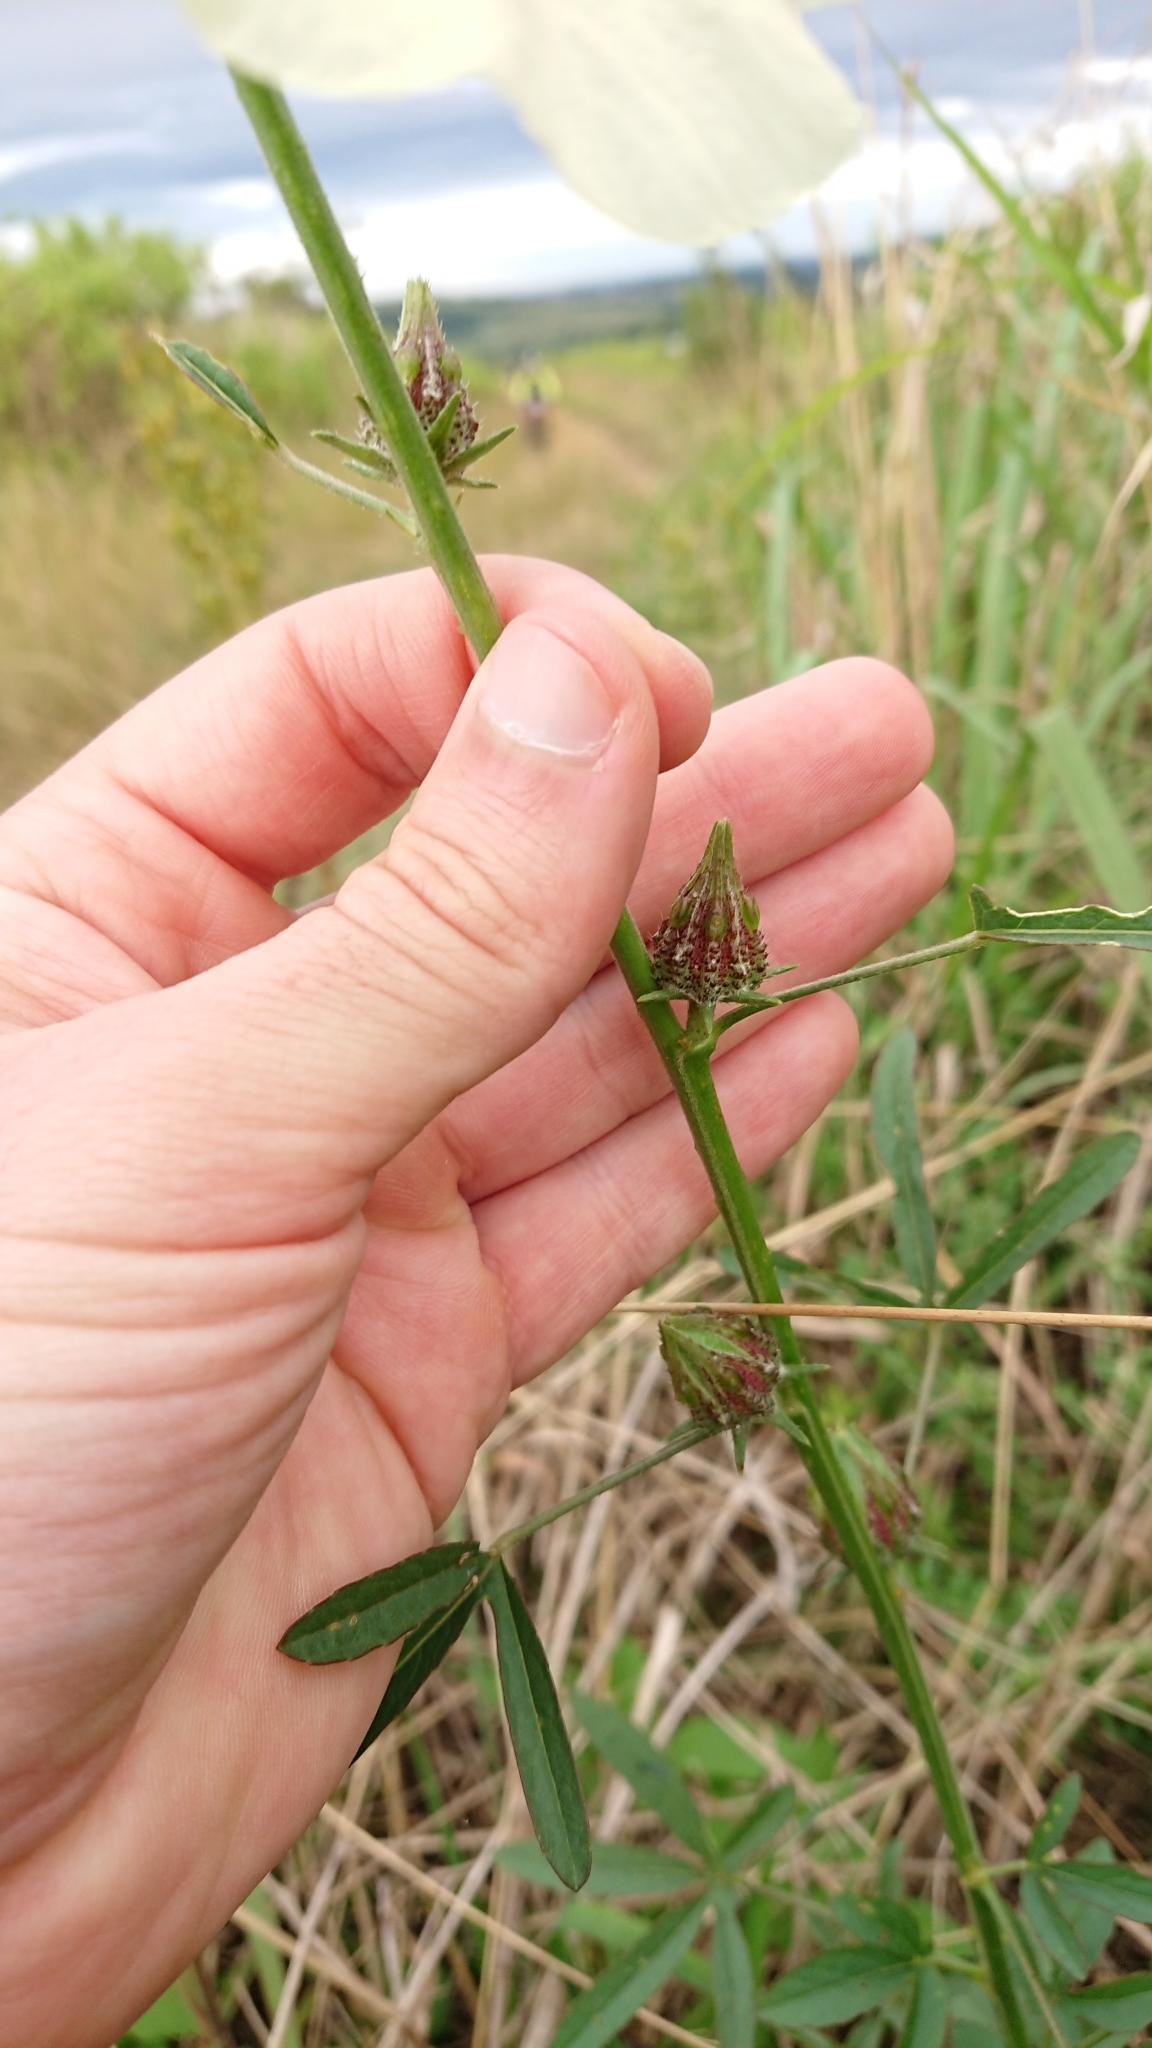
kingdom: Plantae
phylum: Tracheophyta
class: Magnoliopsida
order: Malvales
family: Malvaceae
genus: Hibiscus
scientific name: Hibiscus cannabinus
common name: Brown indianhemp
